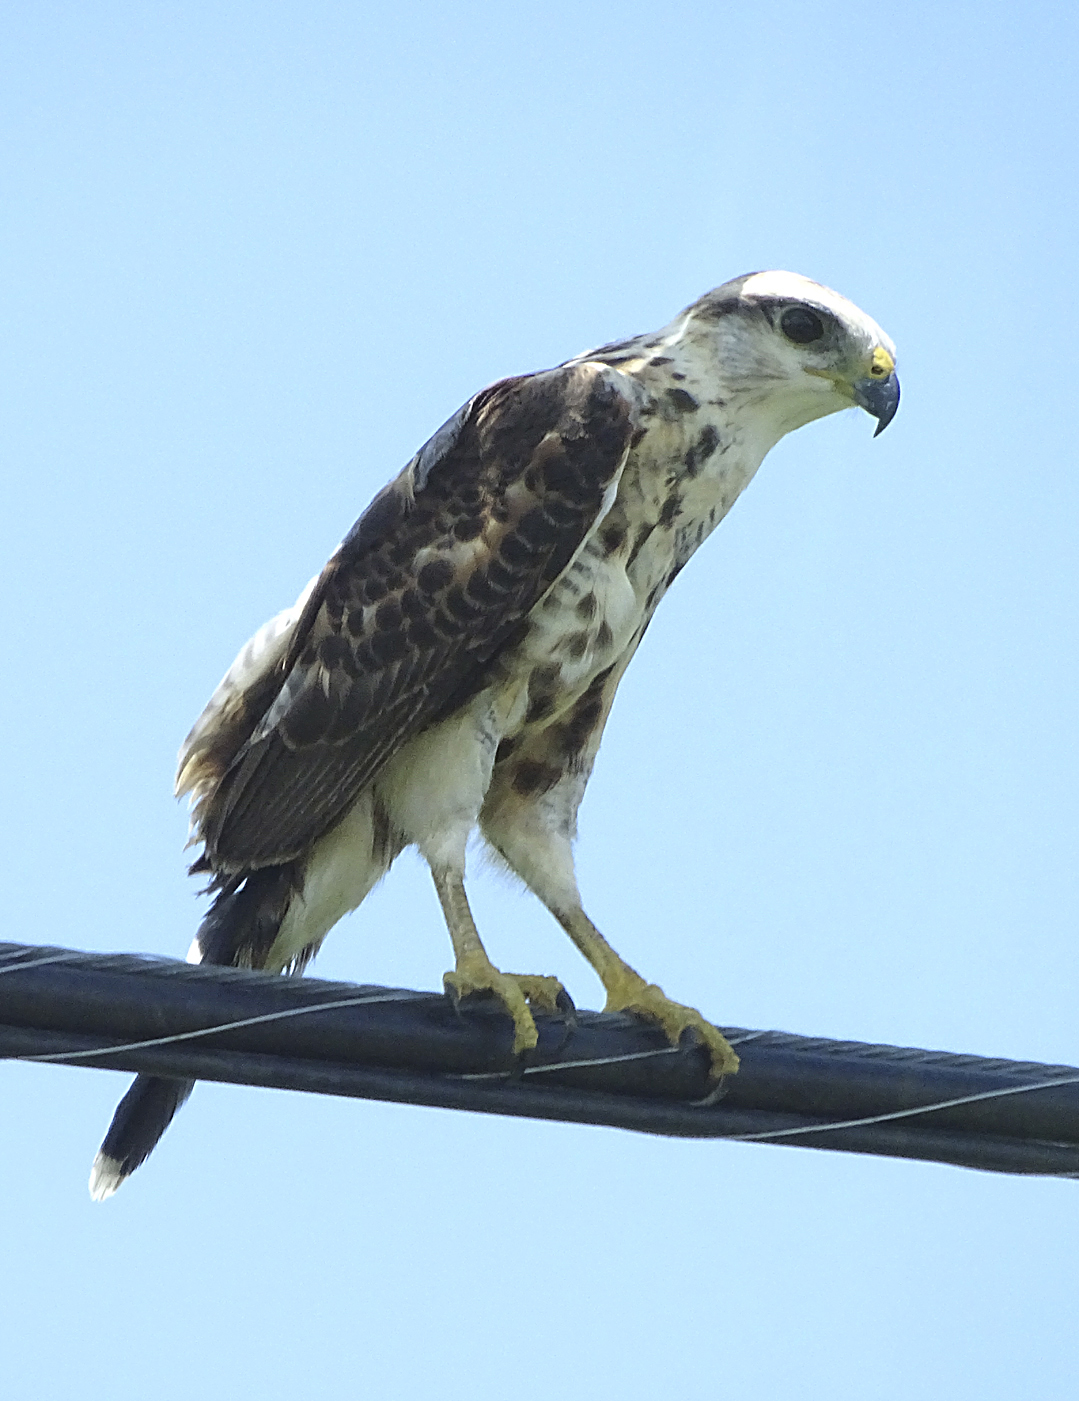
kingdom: Animalia
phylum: Chordata
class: Aves
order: Accipitriformes
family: Accipitridae
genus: Buteo
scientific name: Buteo nitidus
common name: Grey-lined hawk
